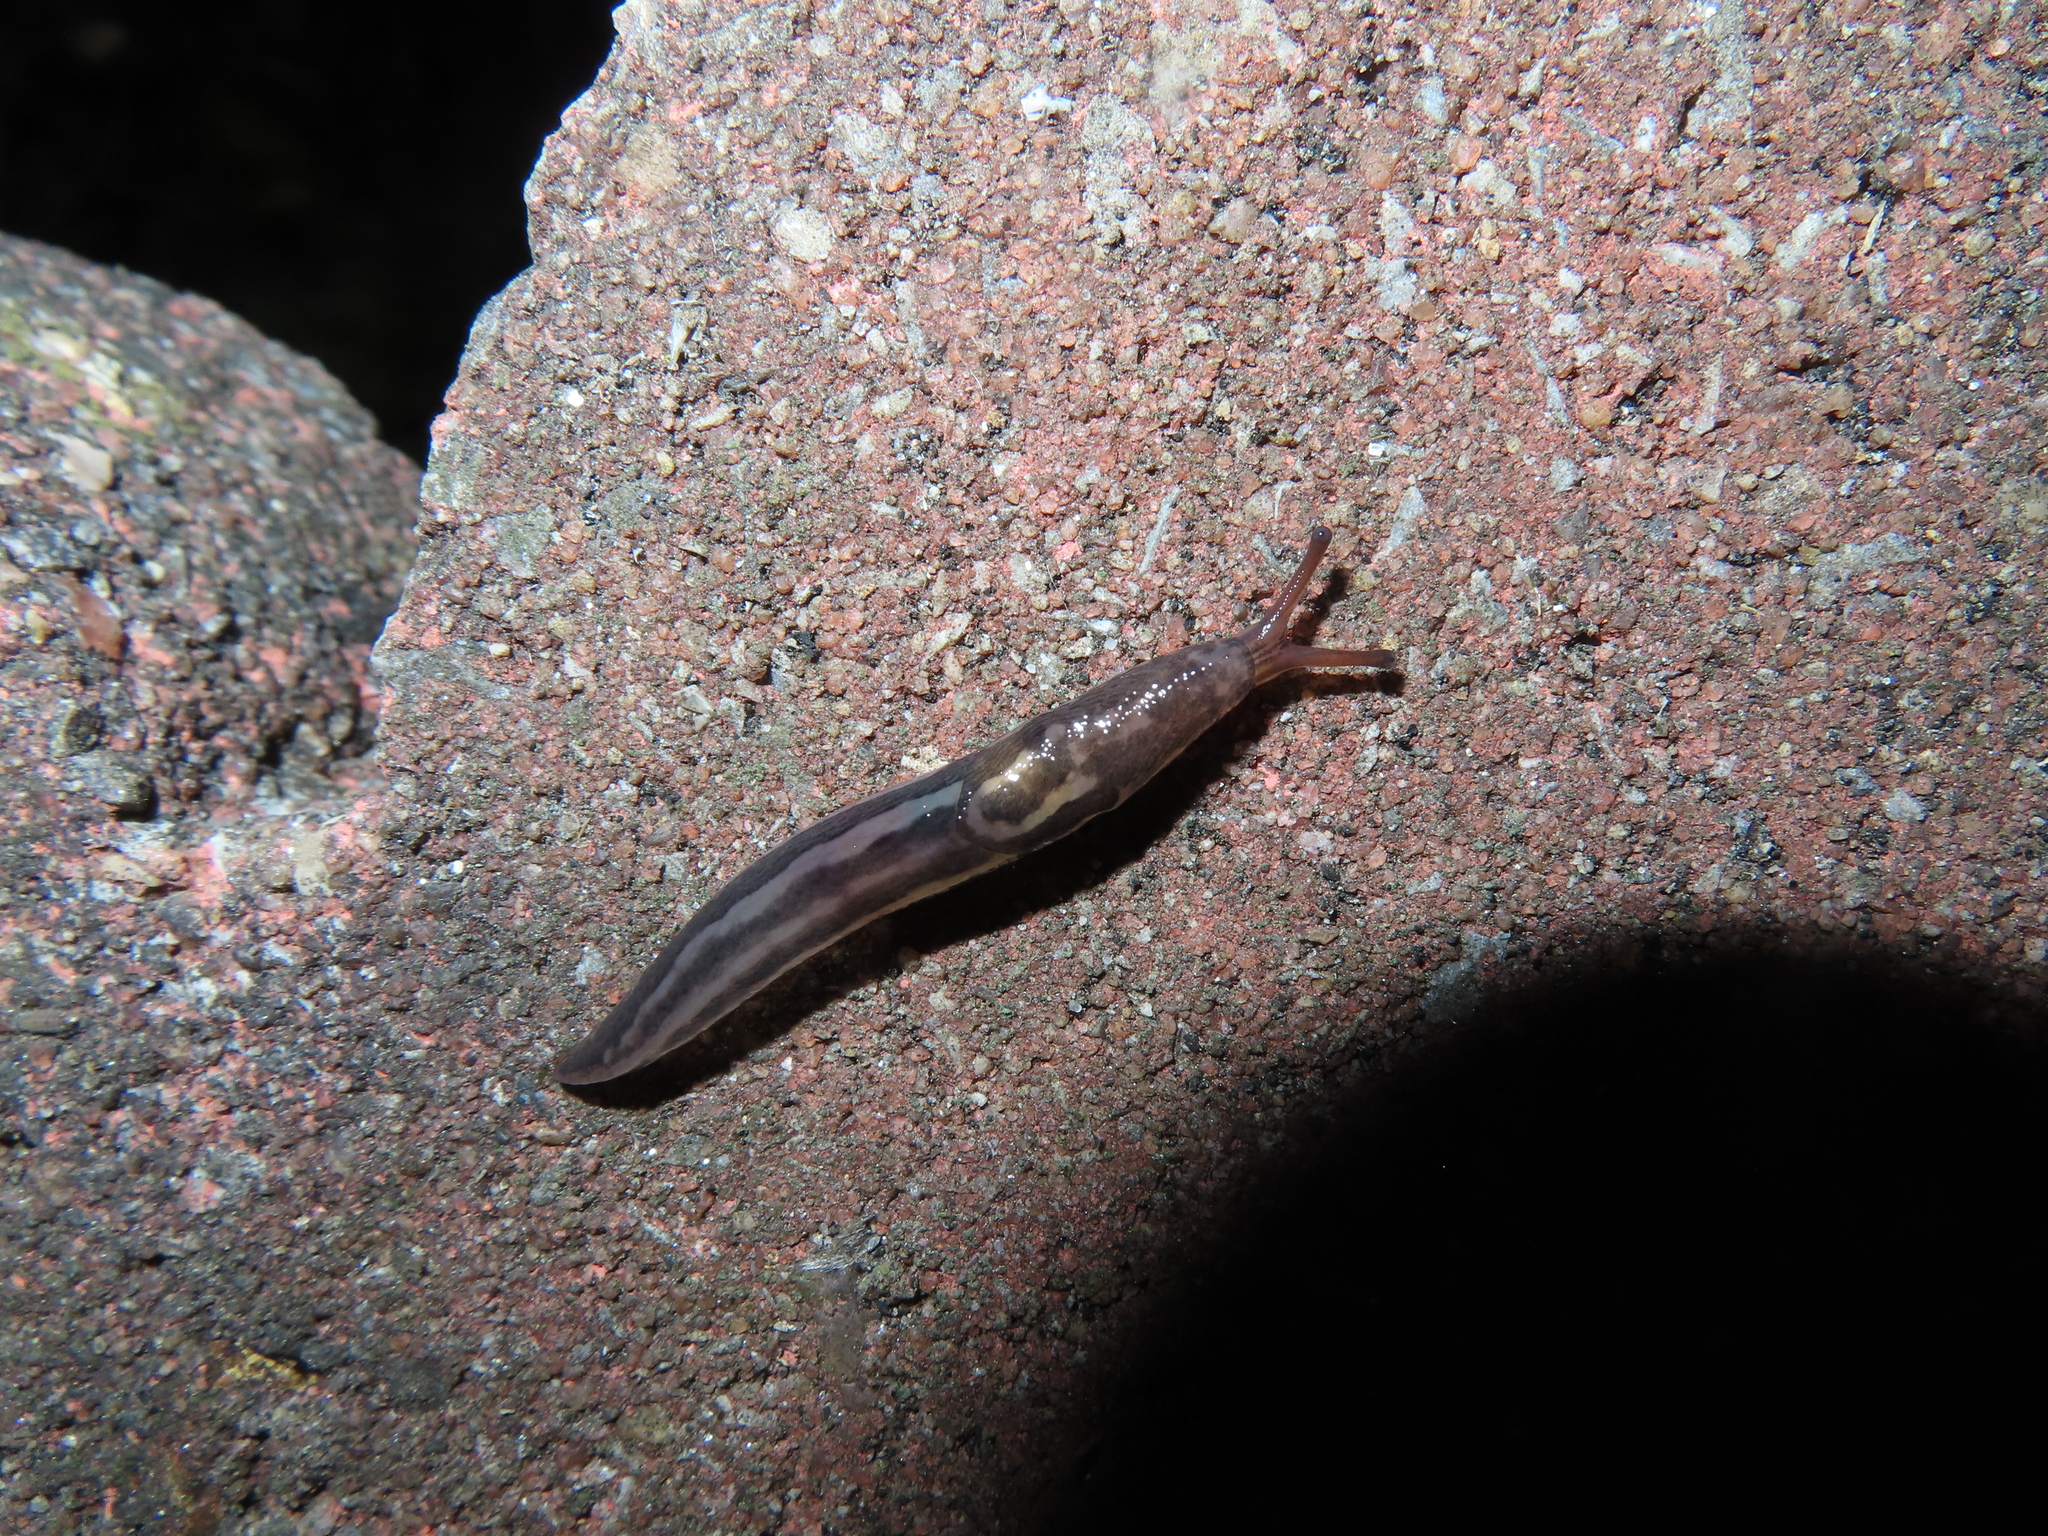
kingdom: Animalia
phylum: Mollusca
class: Gastropoda
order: Stylommatophora
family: Limacidae
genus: Limax
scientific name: Limax maximus
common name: Great grey slug
